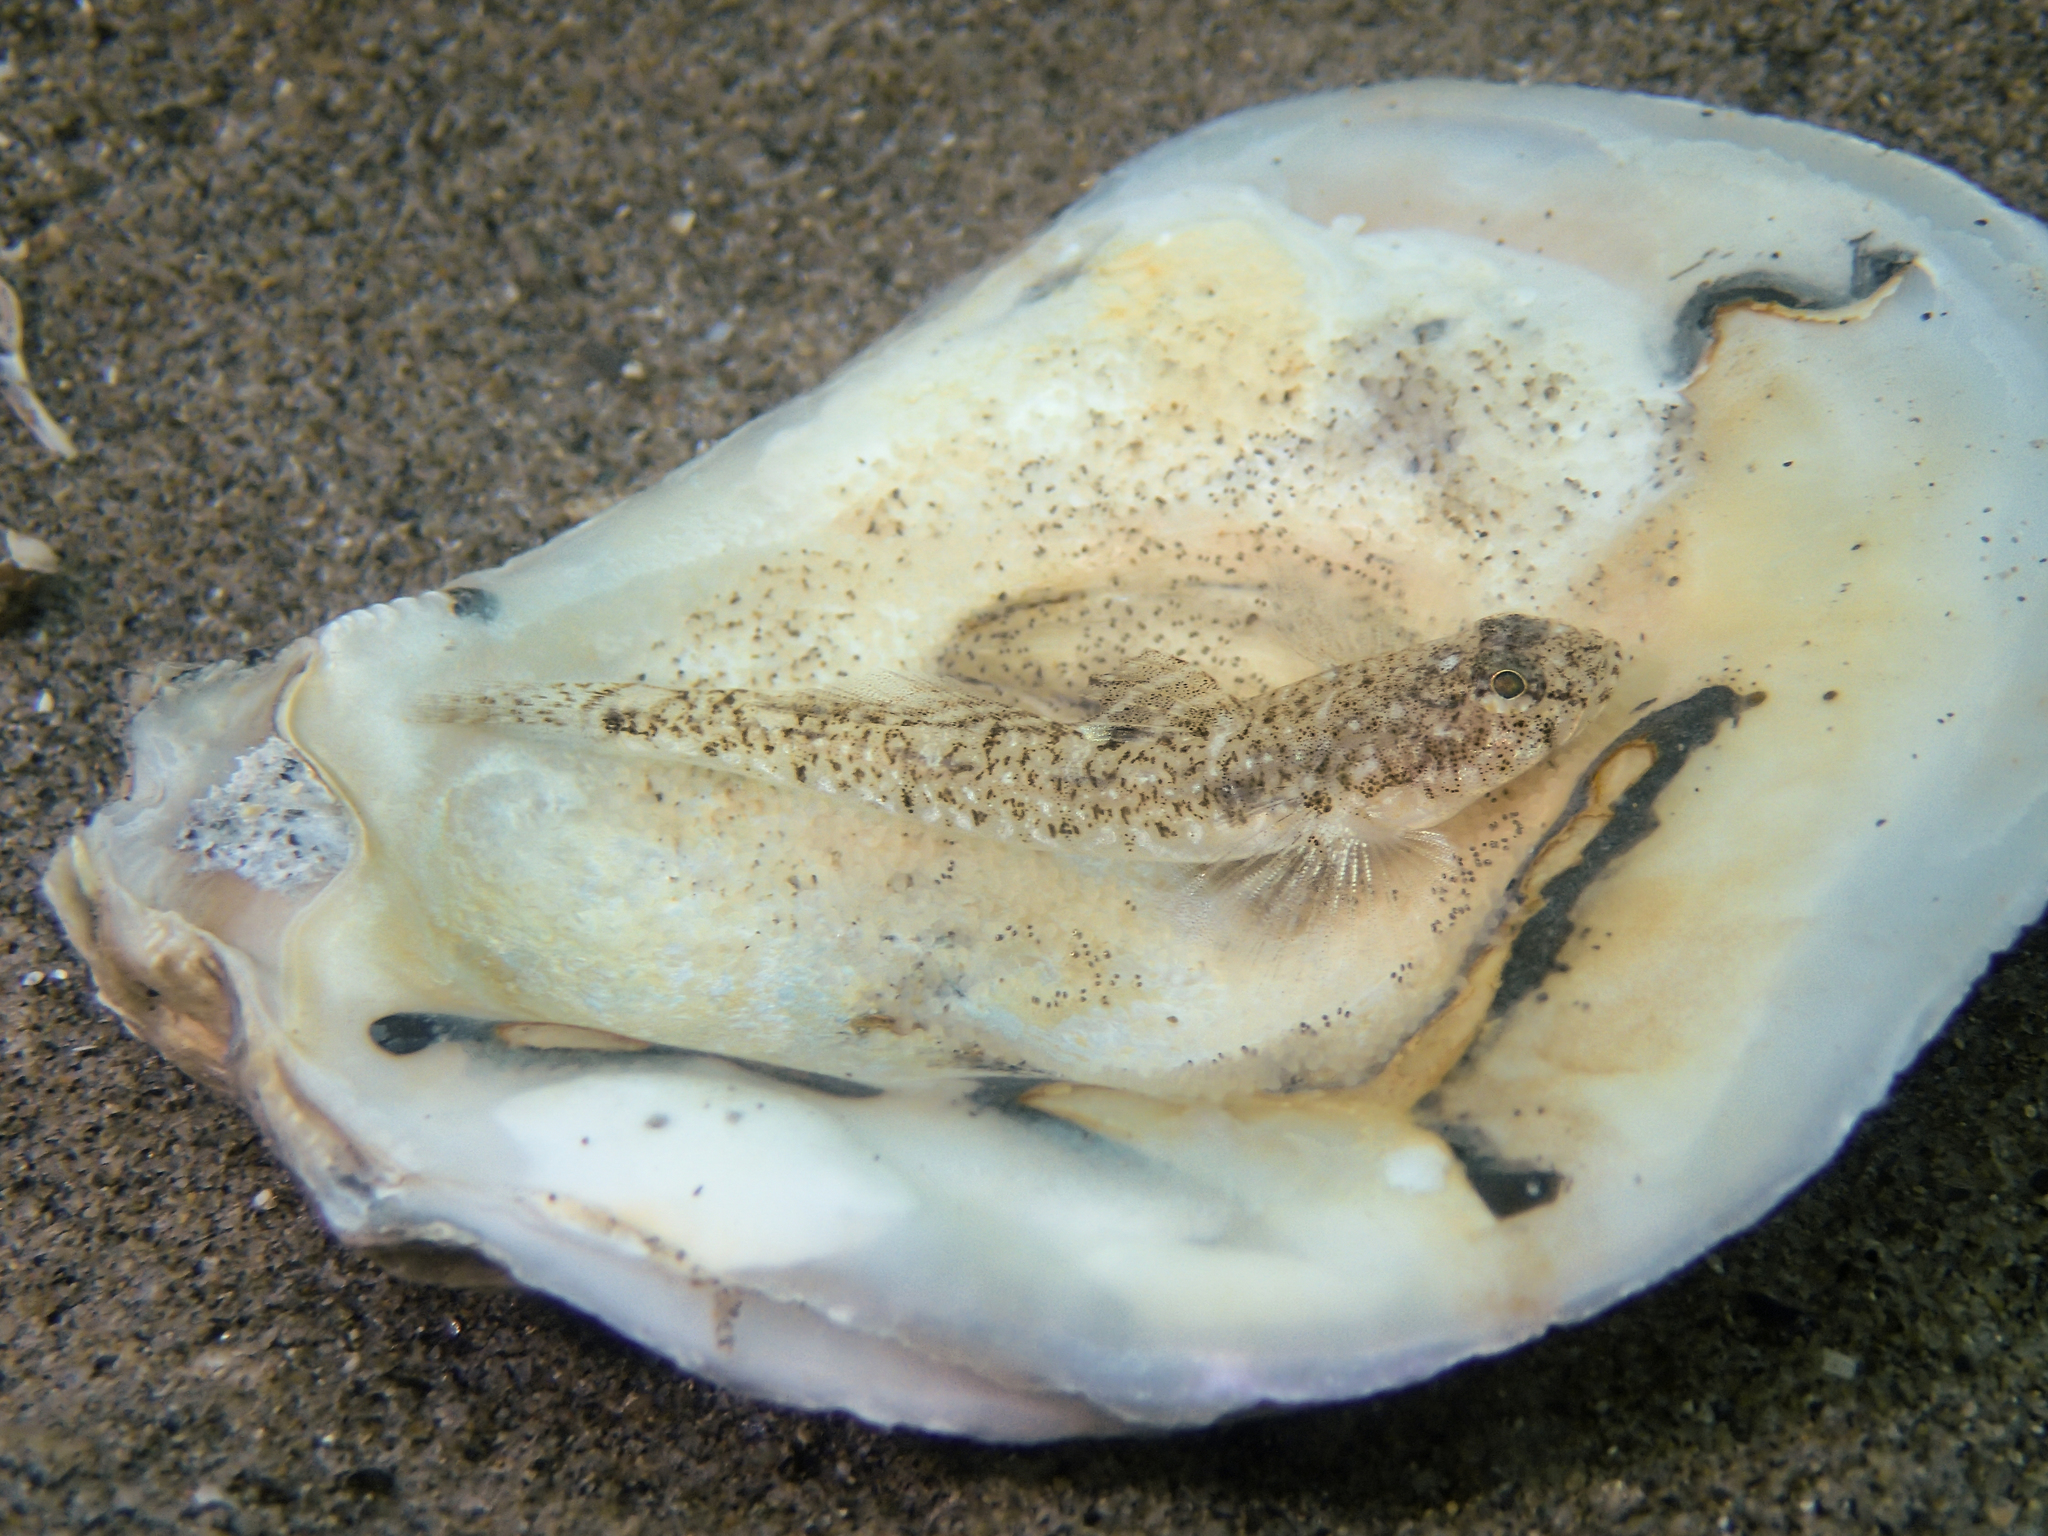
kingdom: Animalia
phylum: Chordata
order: Perciformes
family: Gobiidae
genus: Pomatoschistus
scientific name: Pomatoschistus marmoratus
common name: Marbled goby
